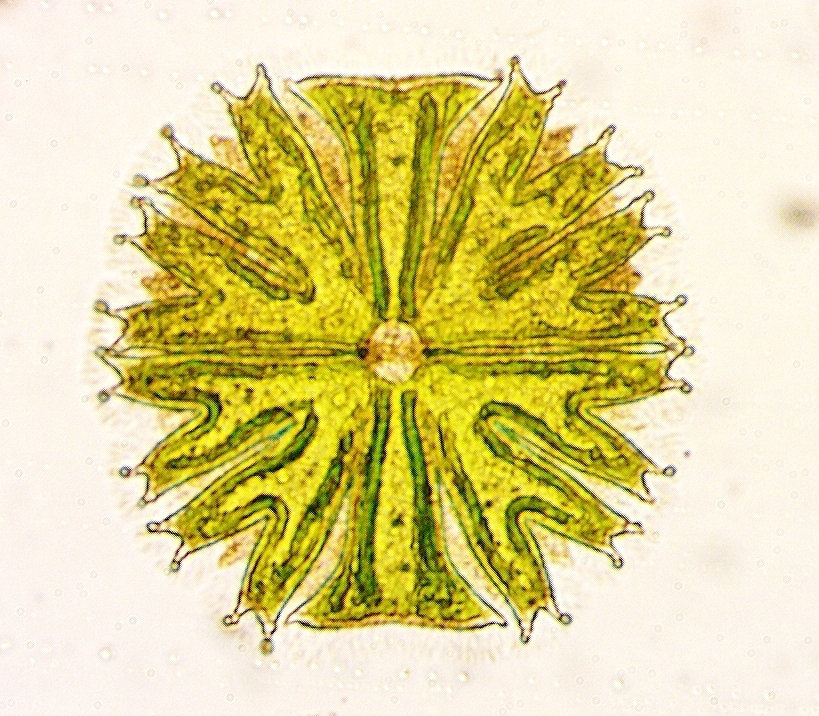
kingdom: Plantae
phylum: Charophyta
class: Zygnematophyceae
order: Zygnematales
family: Desmidiaceae
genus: Micrasterias
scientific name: Micrasterias
